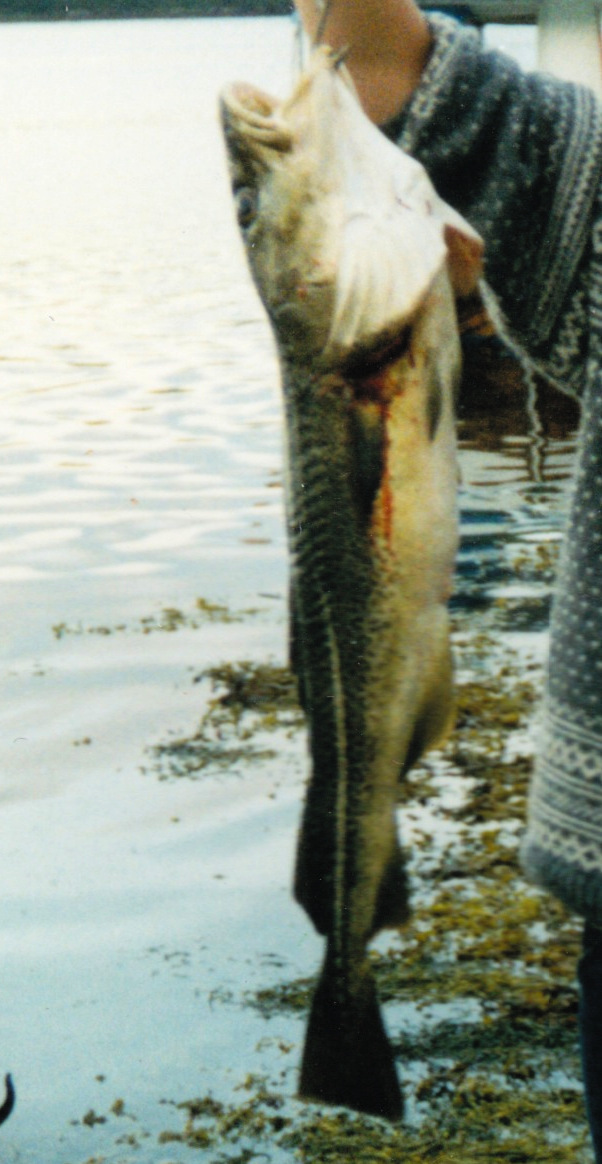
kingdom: Animalia
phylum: Chordata
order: Gadiformes
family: Gadidae
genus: Gadus
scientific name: Gadus morhua
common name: Atlantic cod
